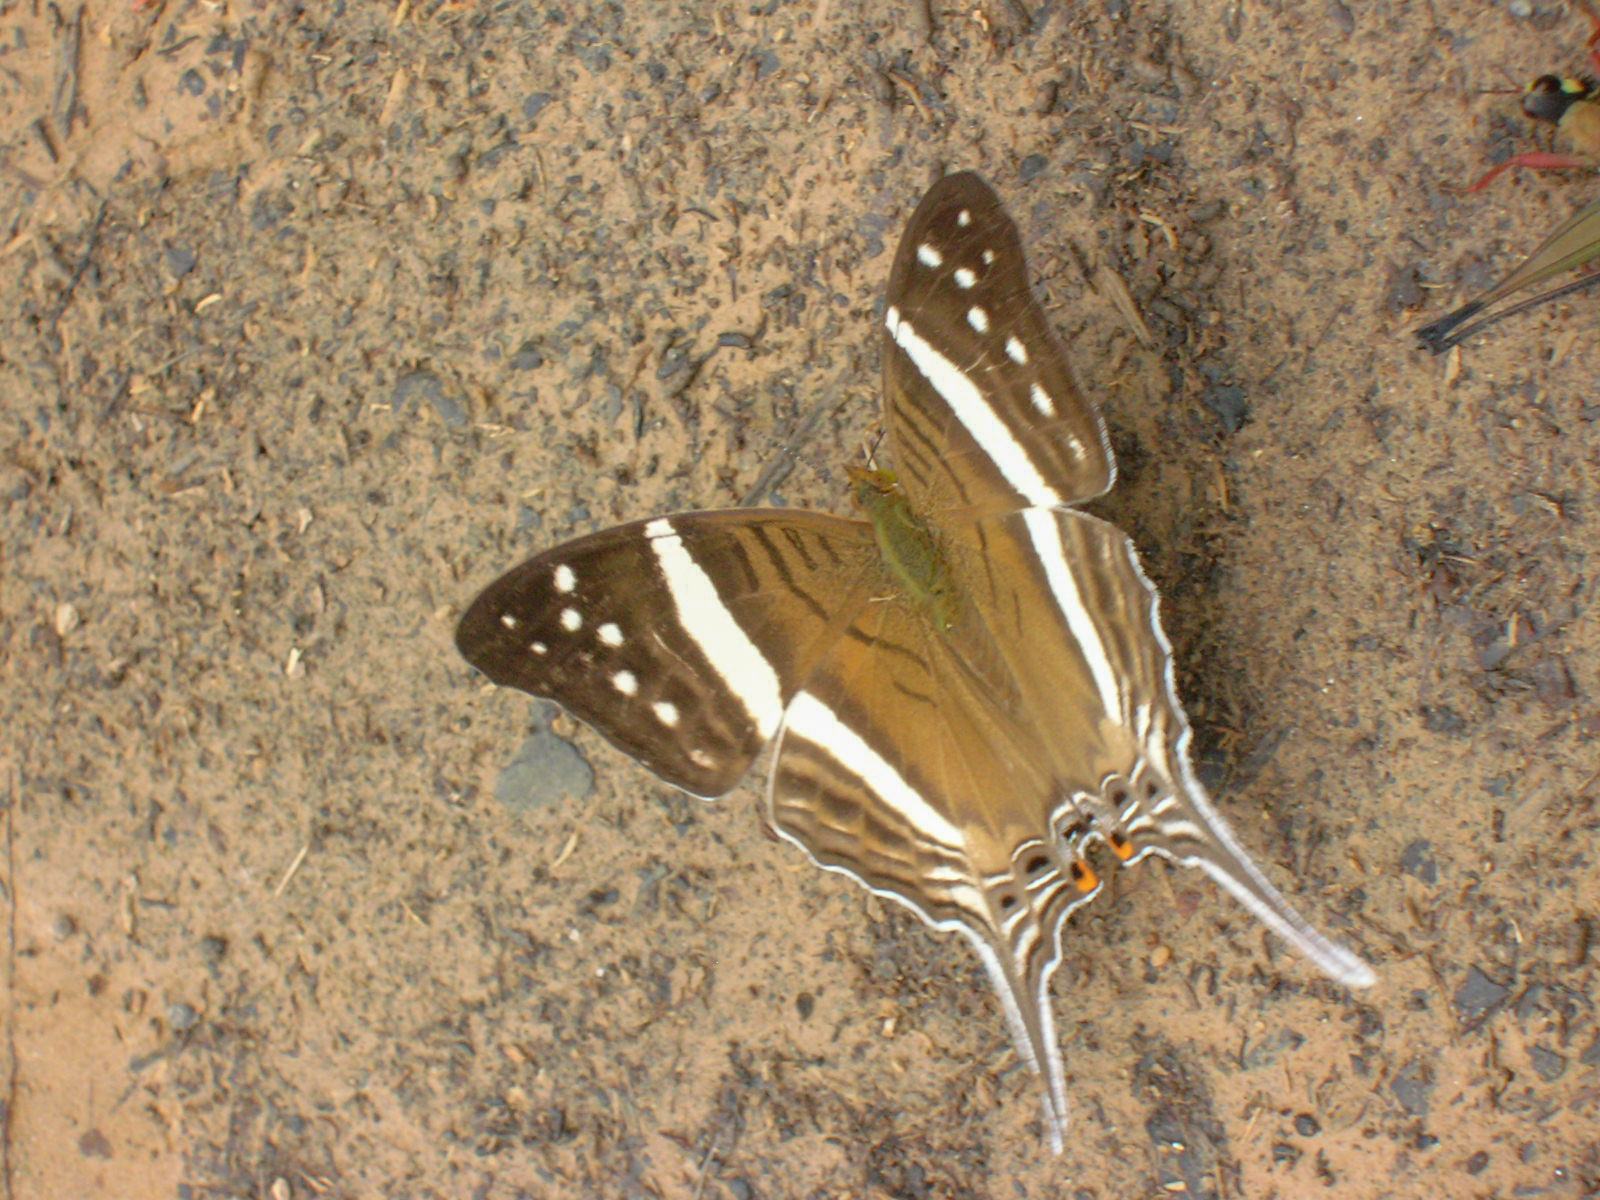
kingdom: Animalia
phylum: Arthropoda
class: Insecta
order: Lepidoptera
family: Nymphalidae
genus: Marpesia
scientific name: Marpesia crethon
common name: Crethon daggerwing
